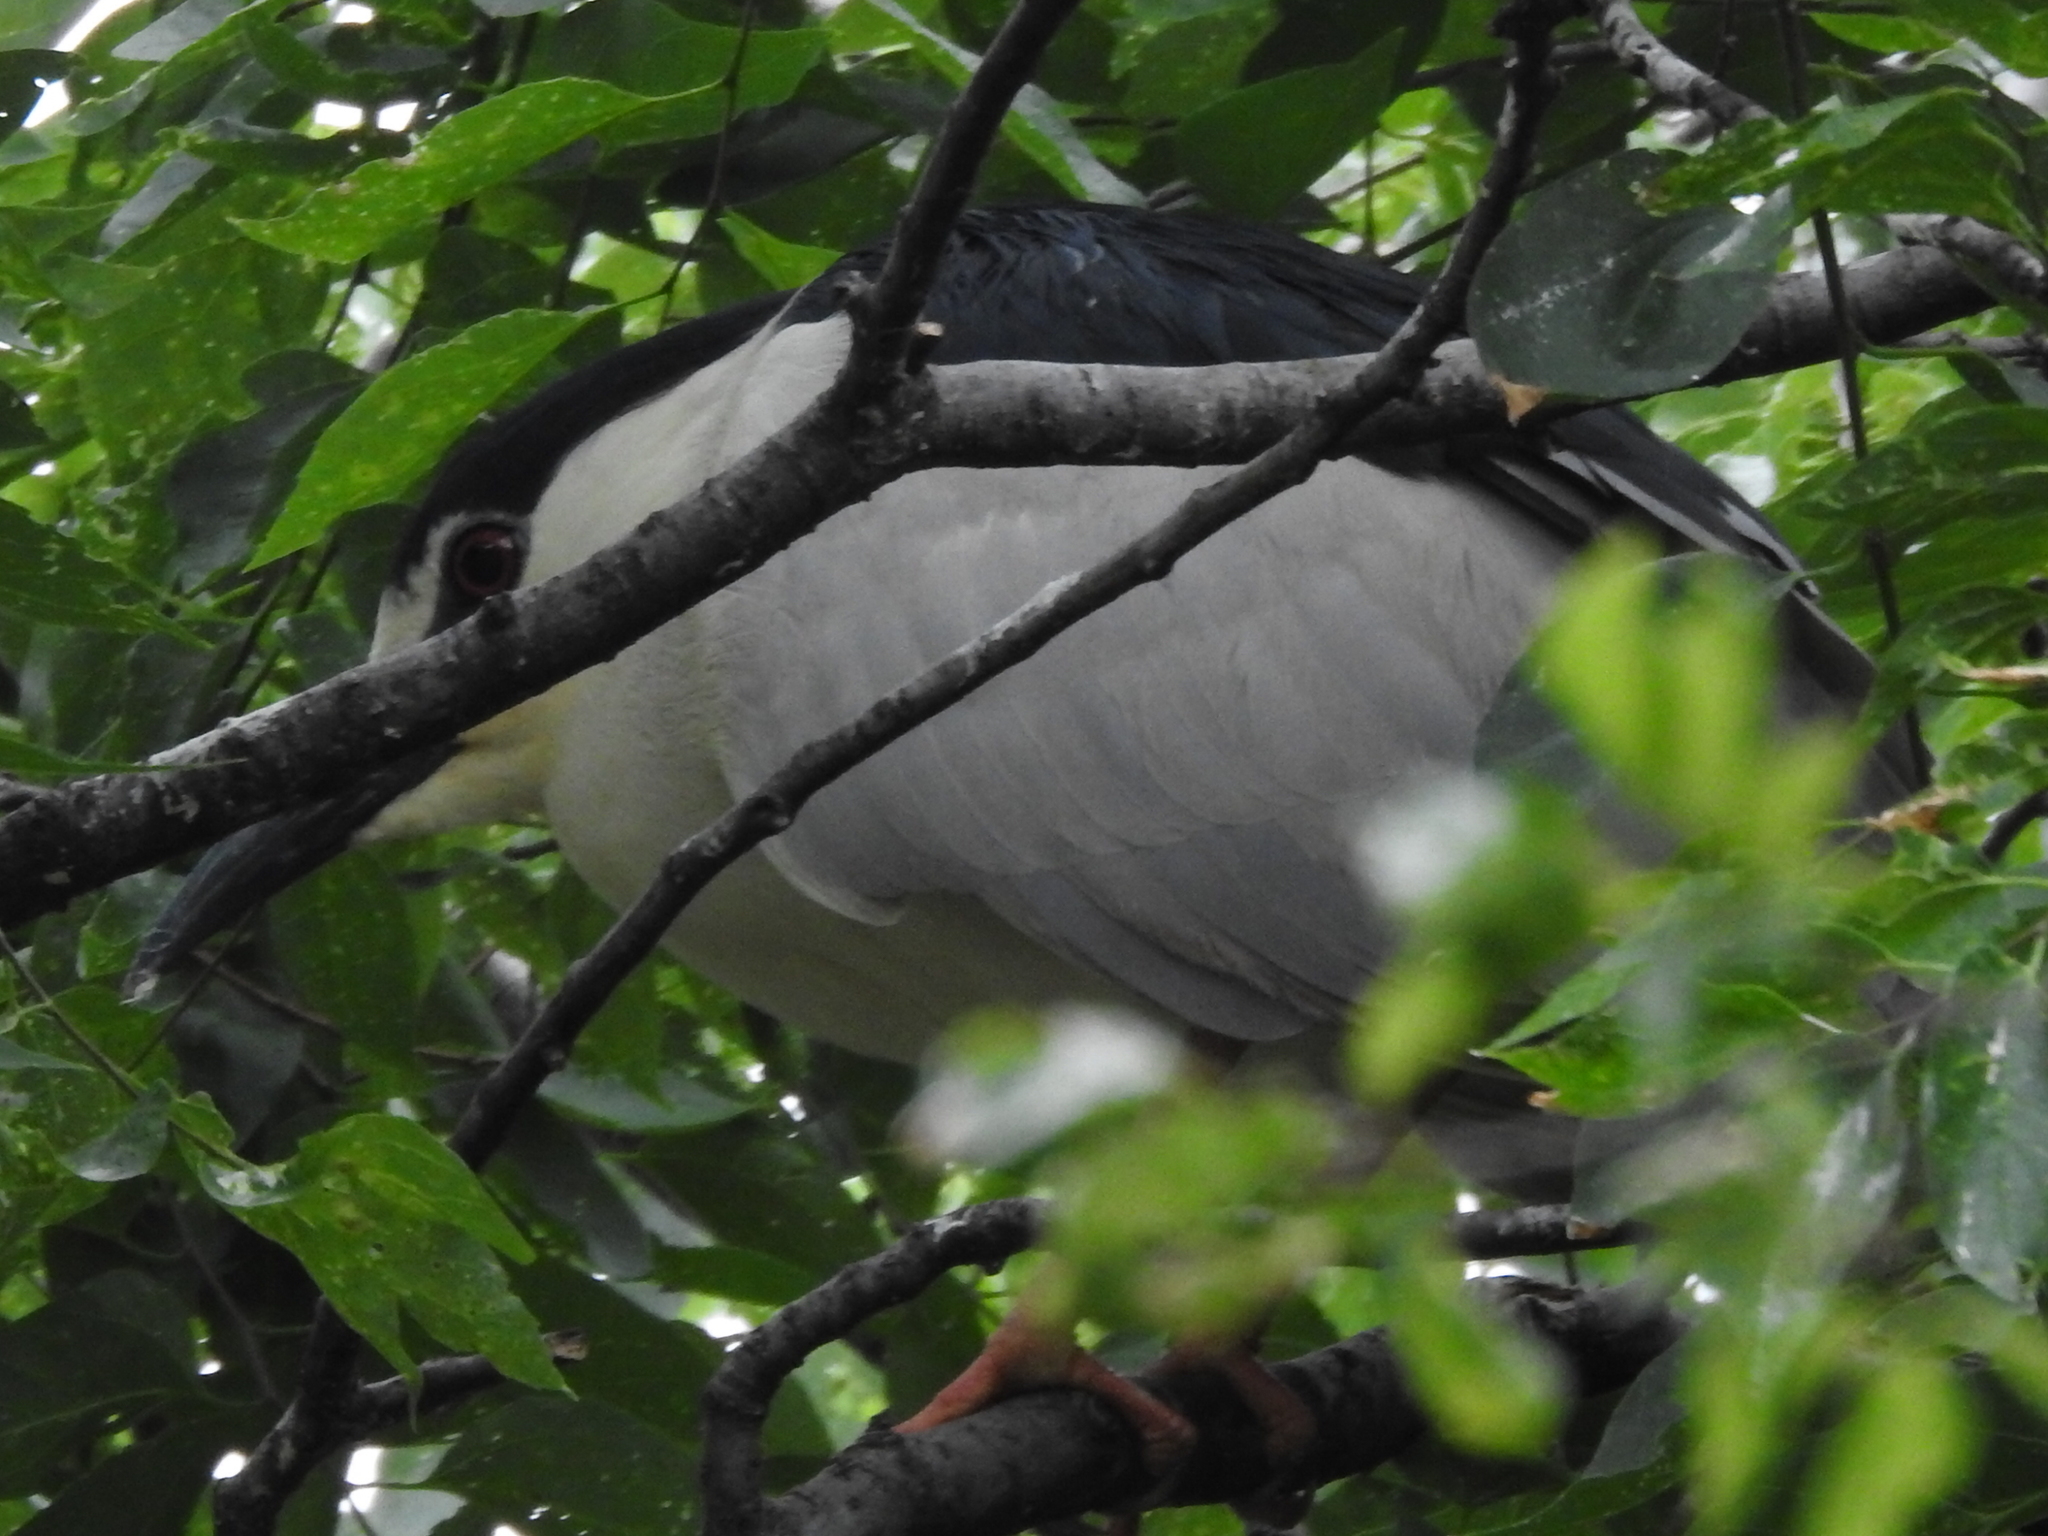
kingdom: Animalia
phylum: Chordata
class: Aves
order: Pelecaniformes
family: Ardeidae
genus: Nycticorax
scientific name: Nycticorax nycticorax
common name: Black-crowned night heron
